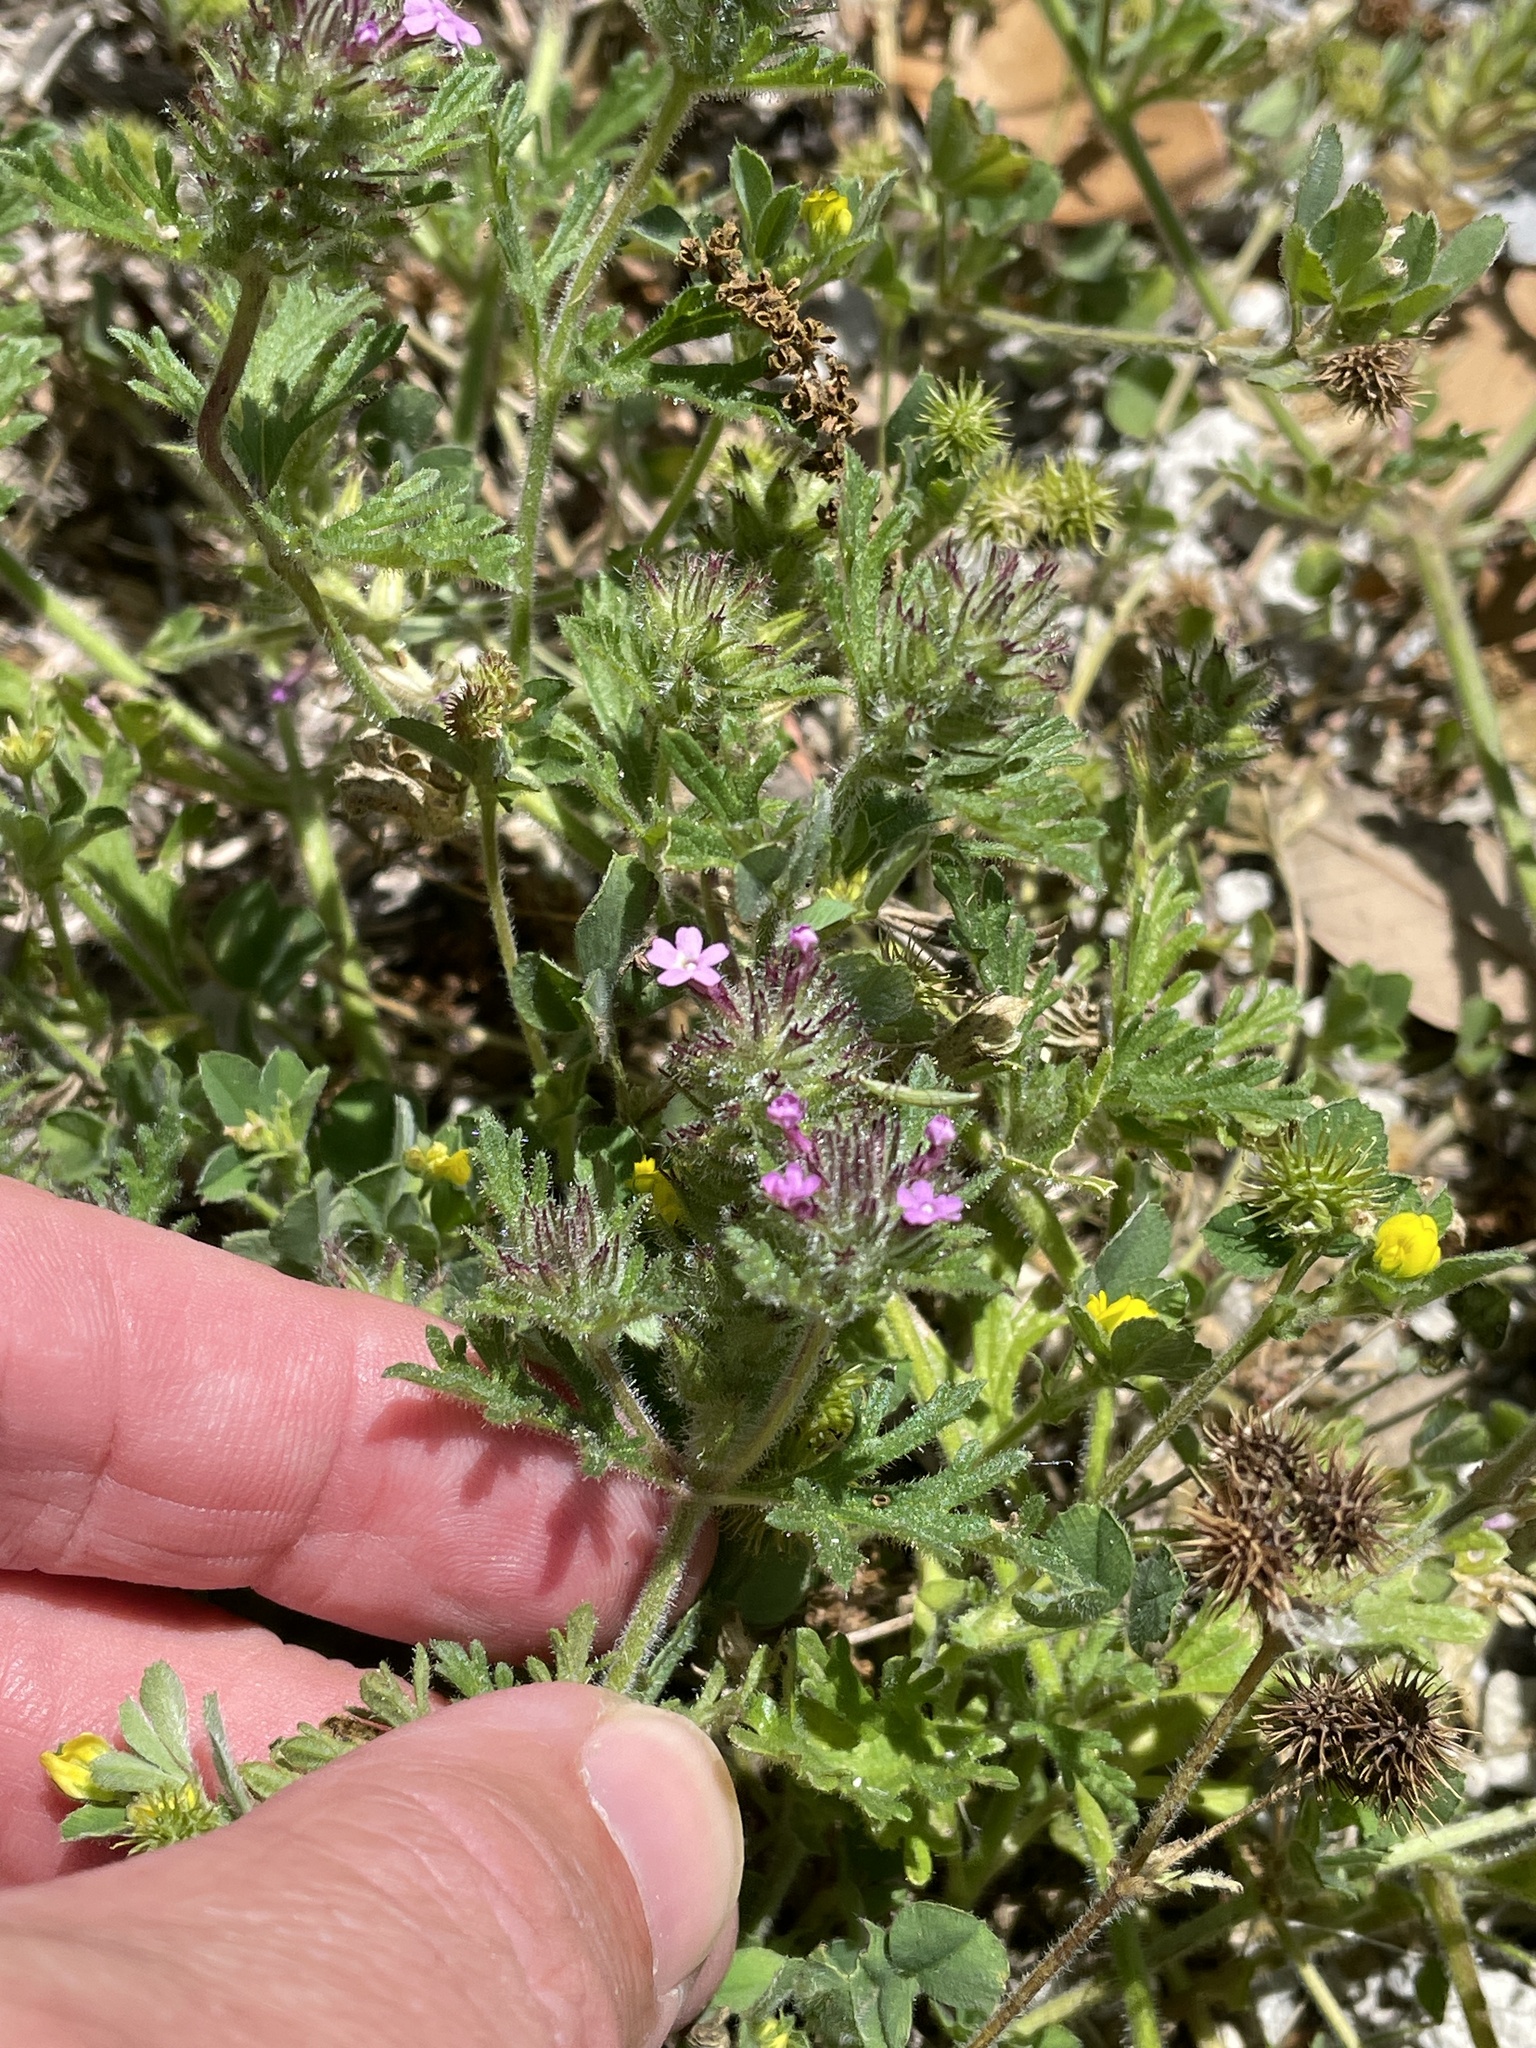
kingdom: Plantae
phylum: Tracheophyta
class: Magnoliopsida
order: Lamiales
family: Verbenaceae
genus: Verbena
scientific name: Verbena pumila
